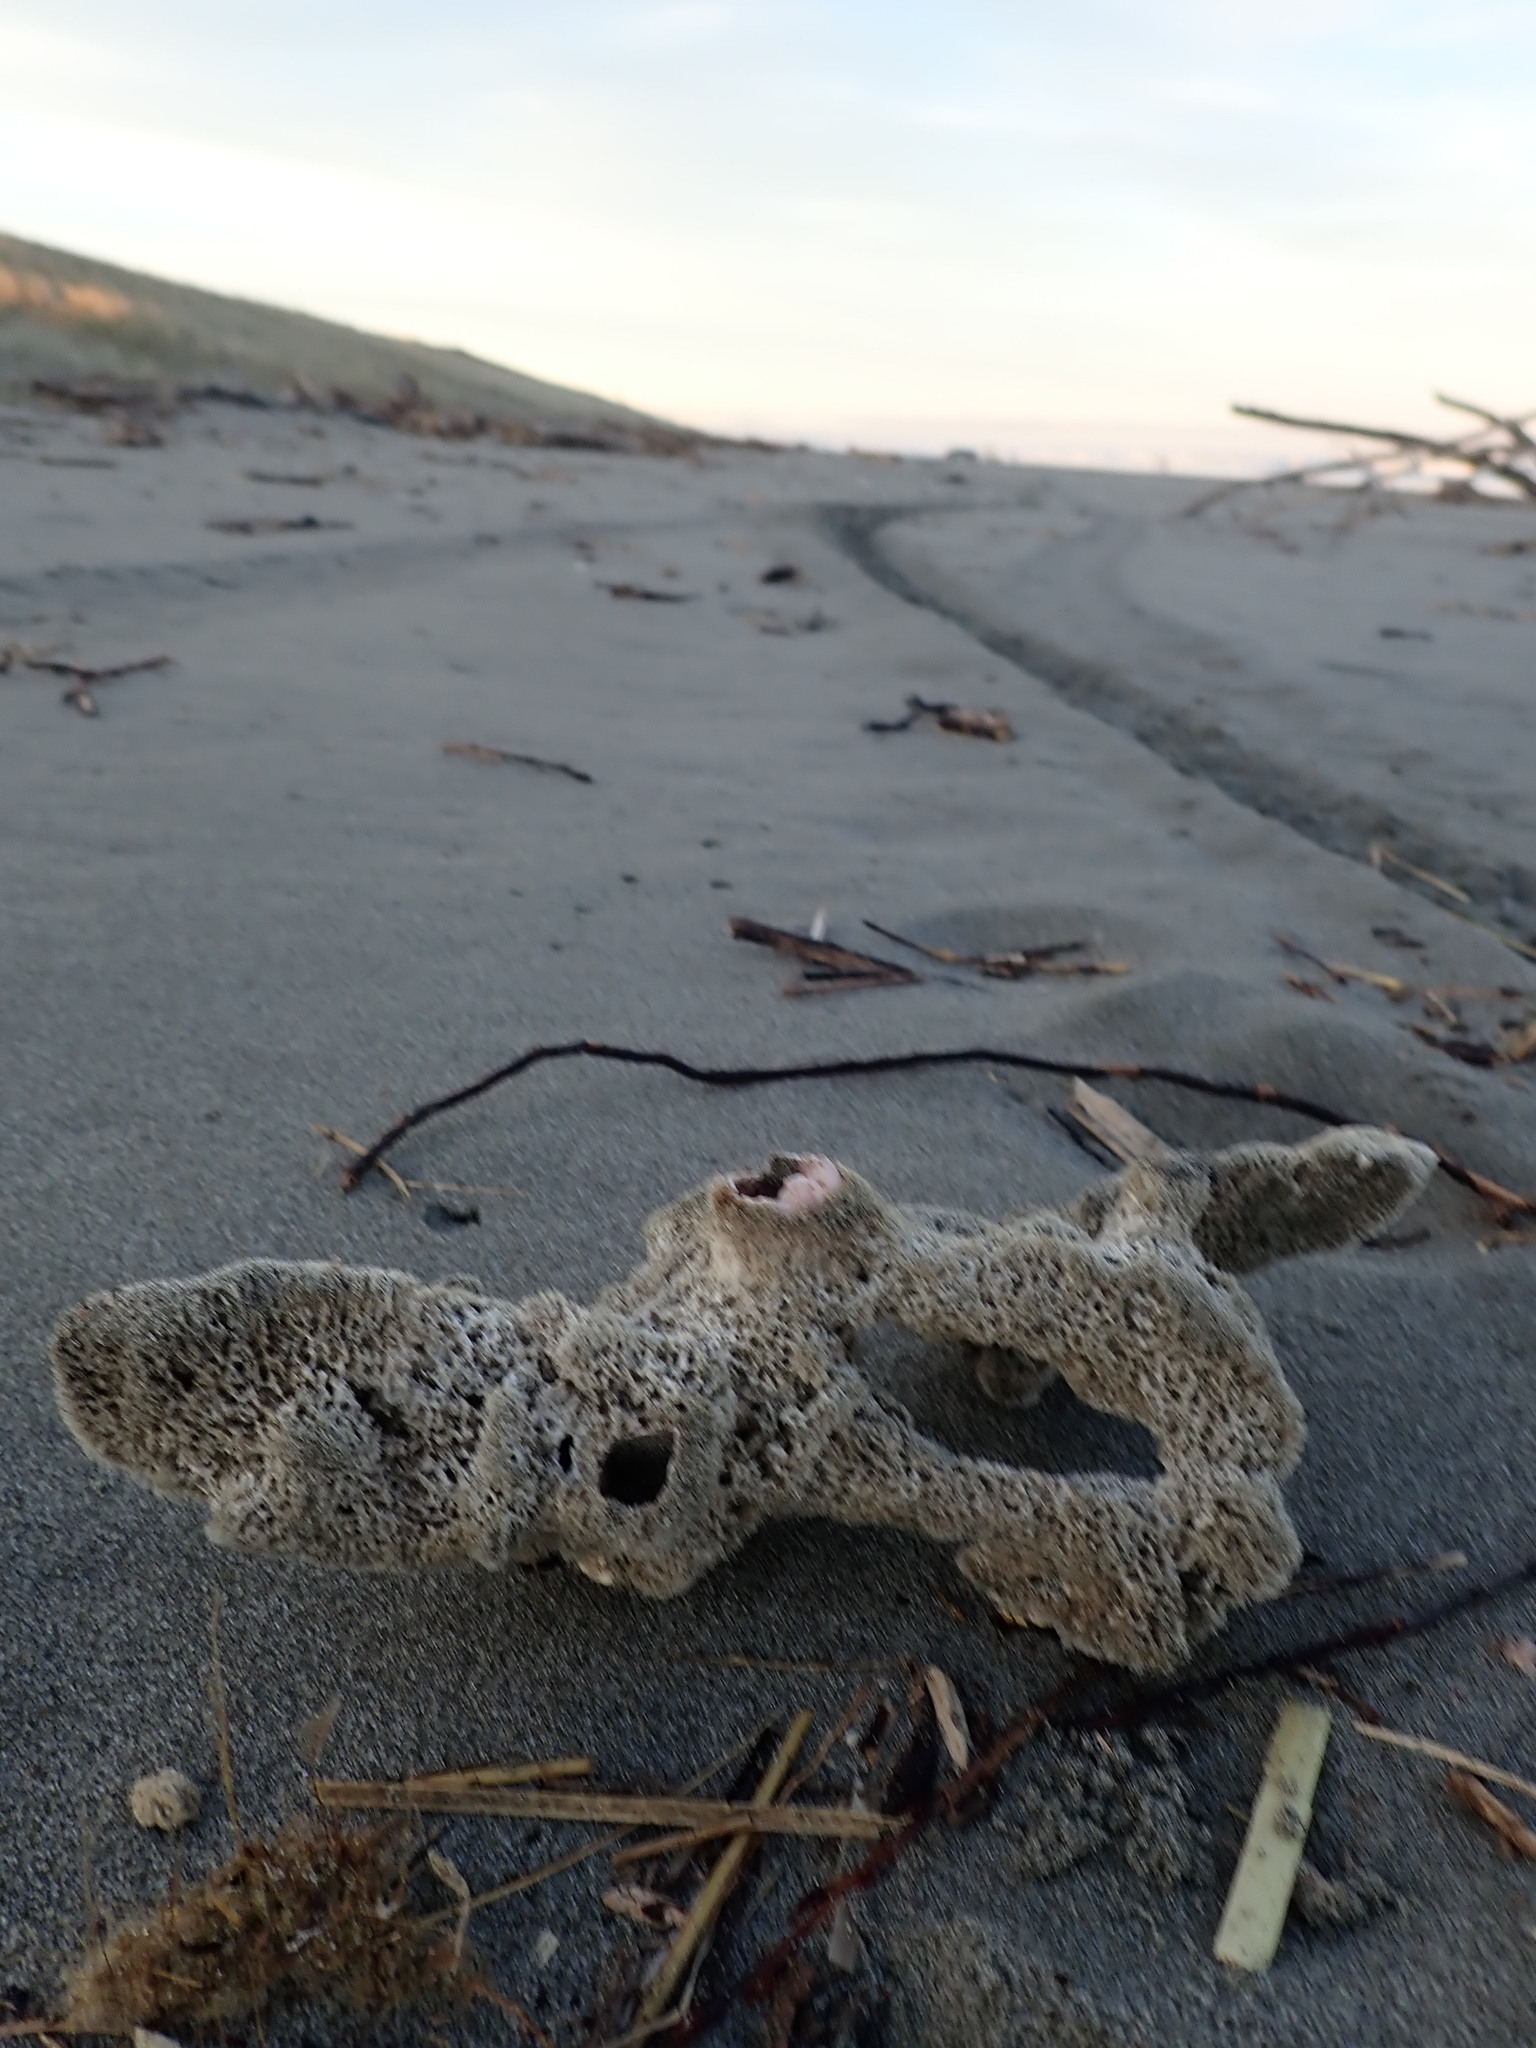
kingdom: Animalia
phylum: Mollusca
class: Bivalvia
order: Arcida
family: Glycymerididae
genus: Tucetona
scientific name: Tucetona laticostata
